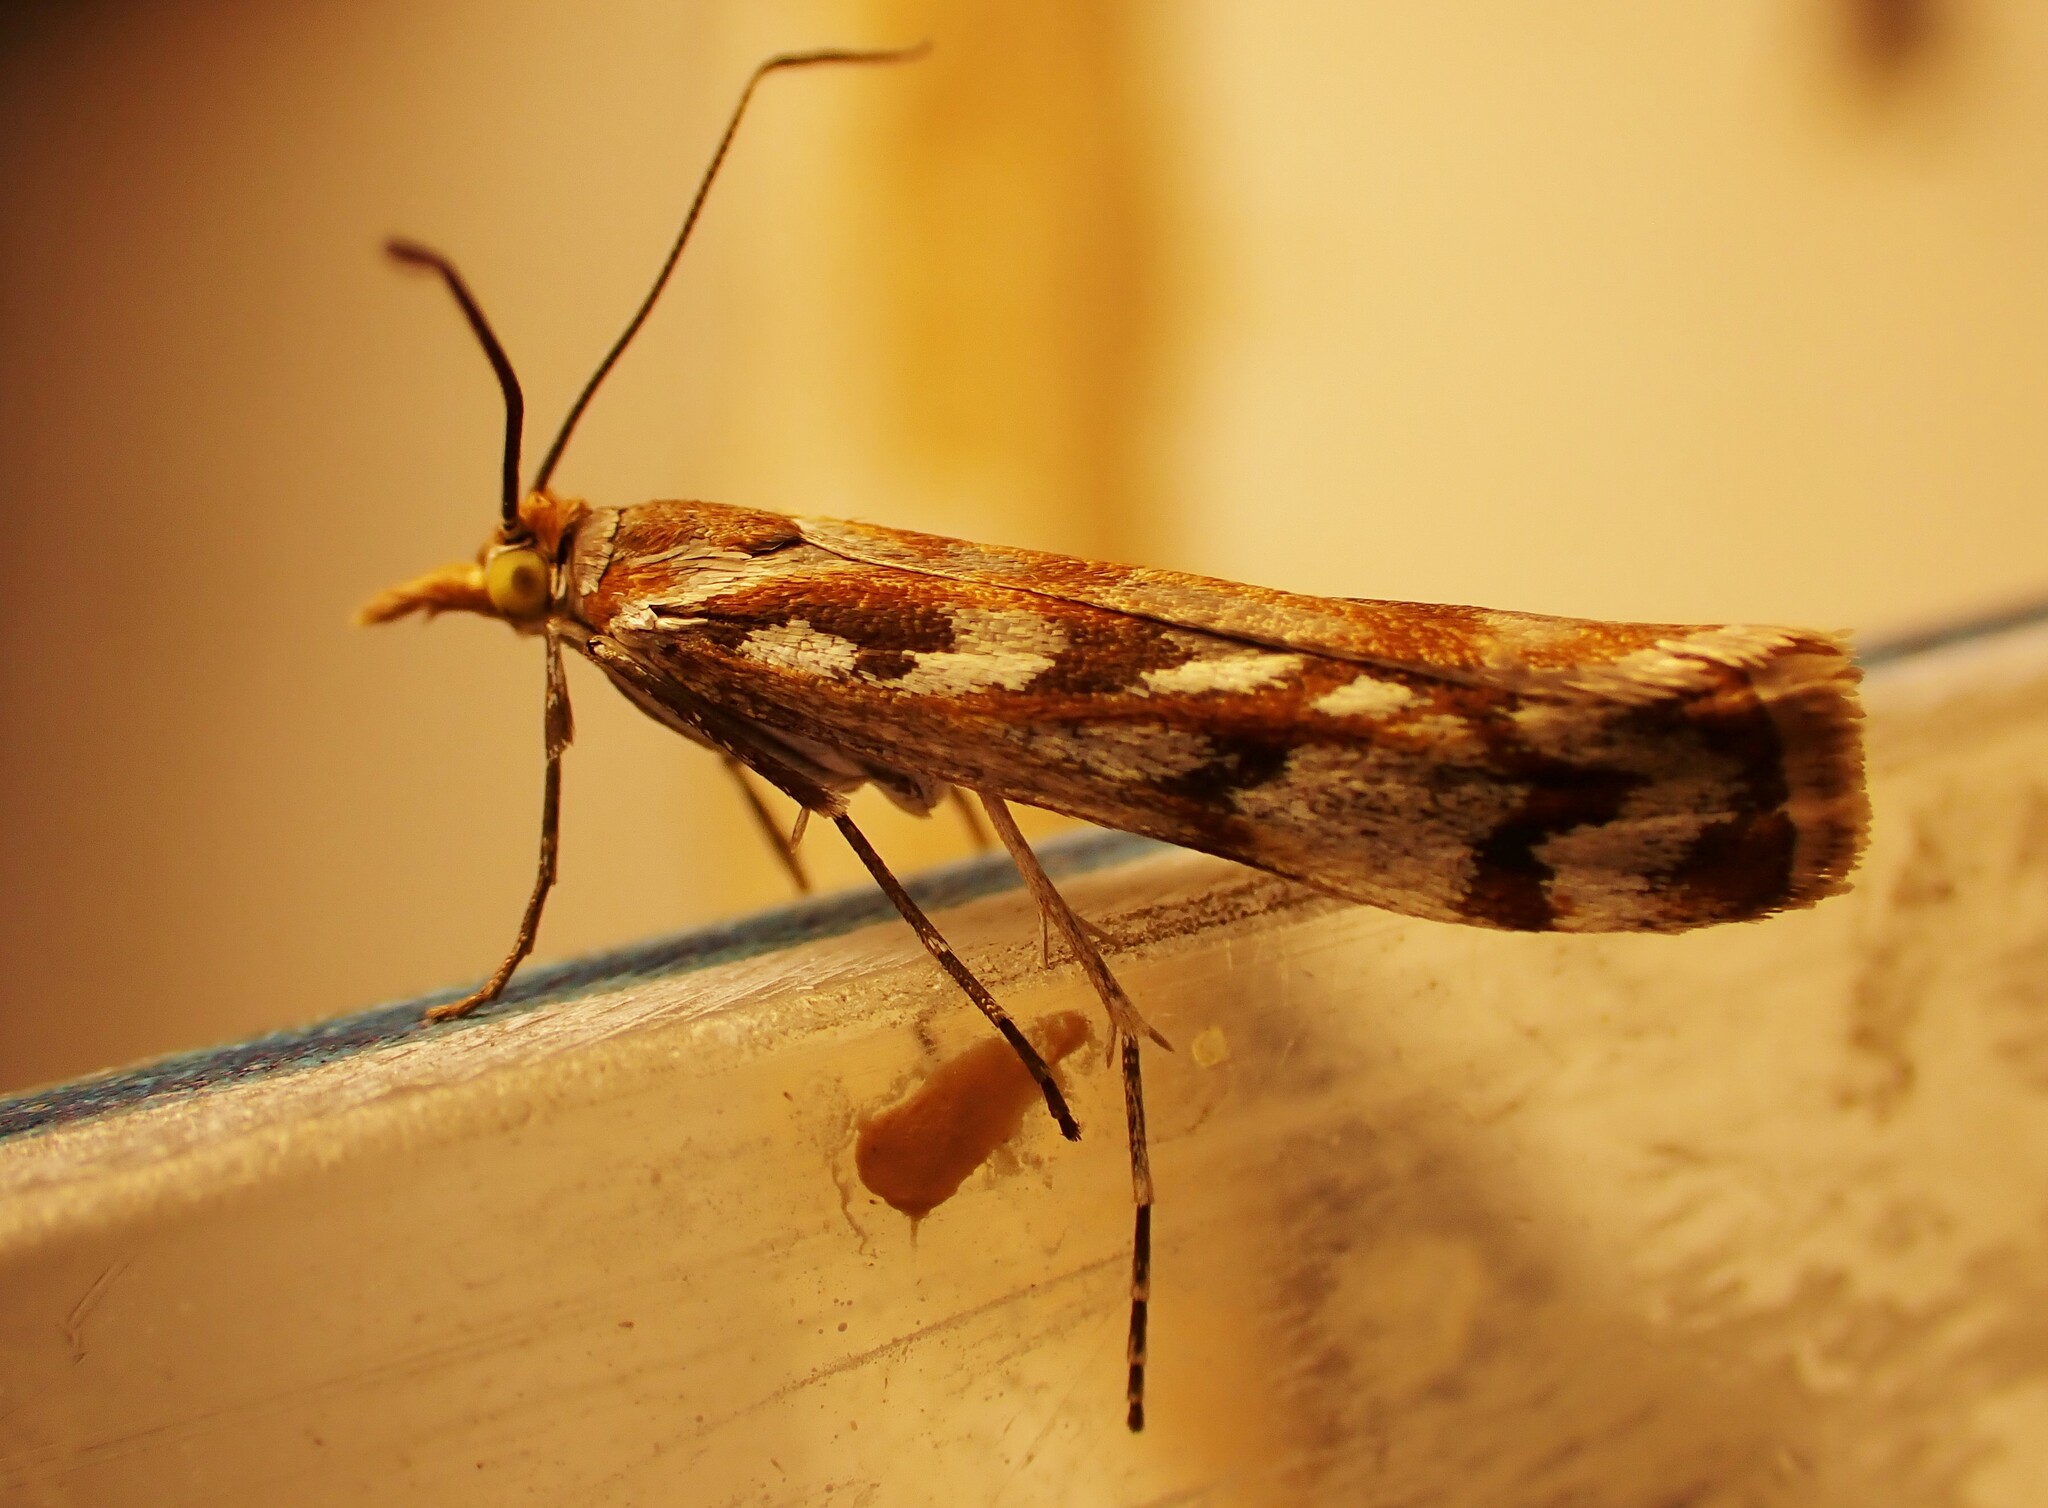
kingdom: Animalia
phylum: Arthropoda
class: Insecta
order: Lepidoptera
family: Crambidae
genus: Orocrambus
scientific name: Orocrambus xanthogrammus
